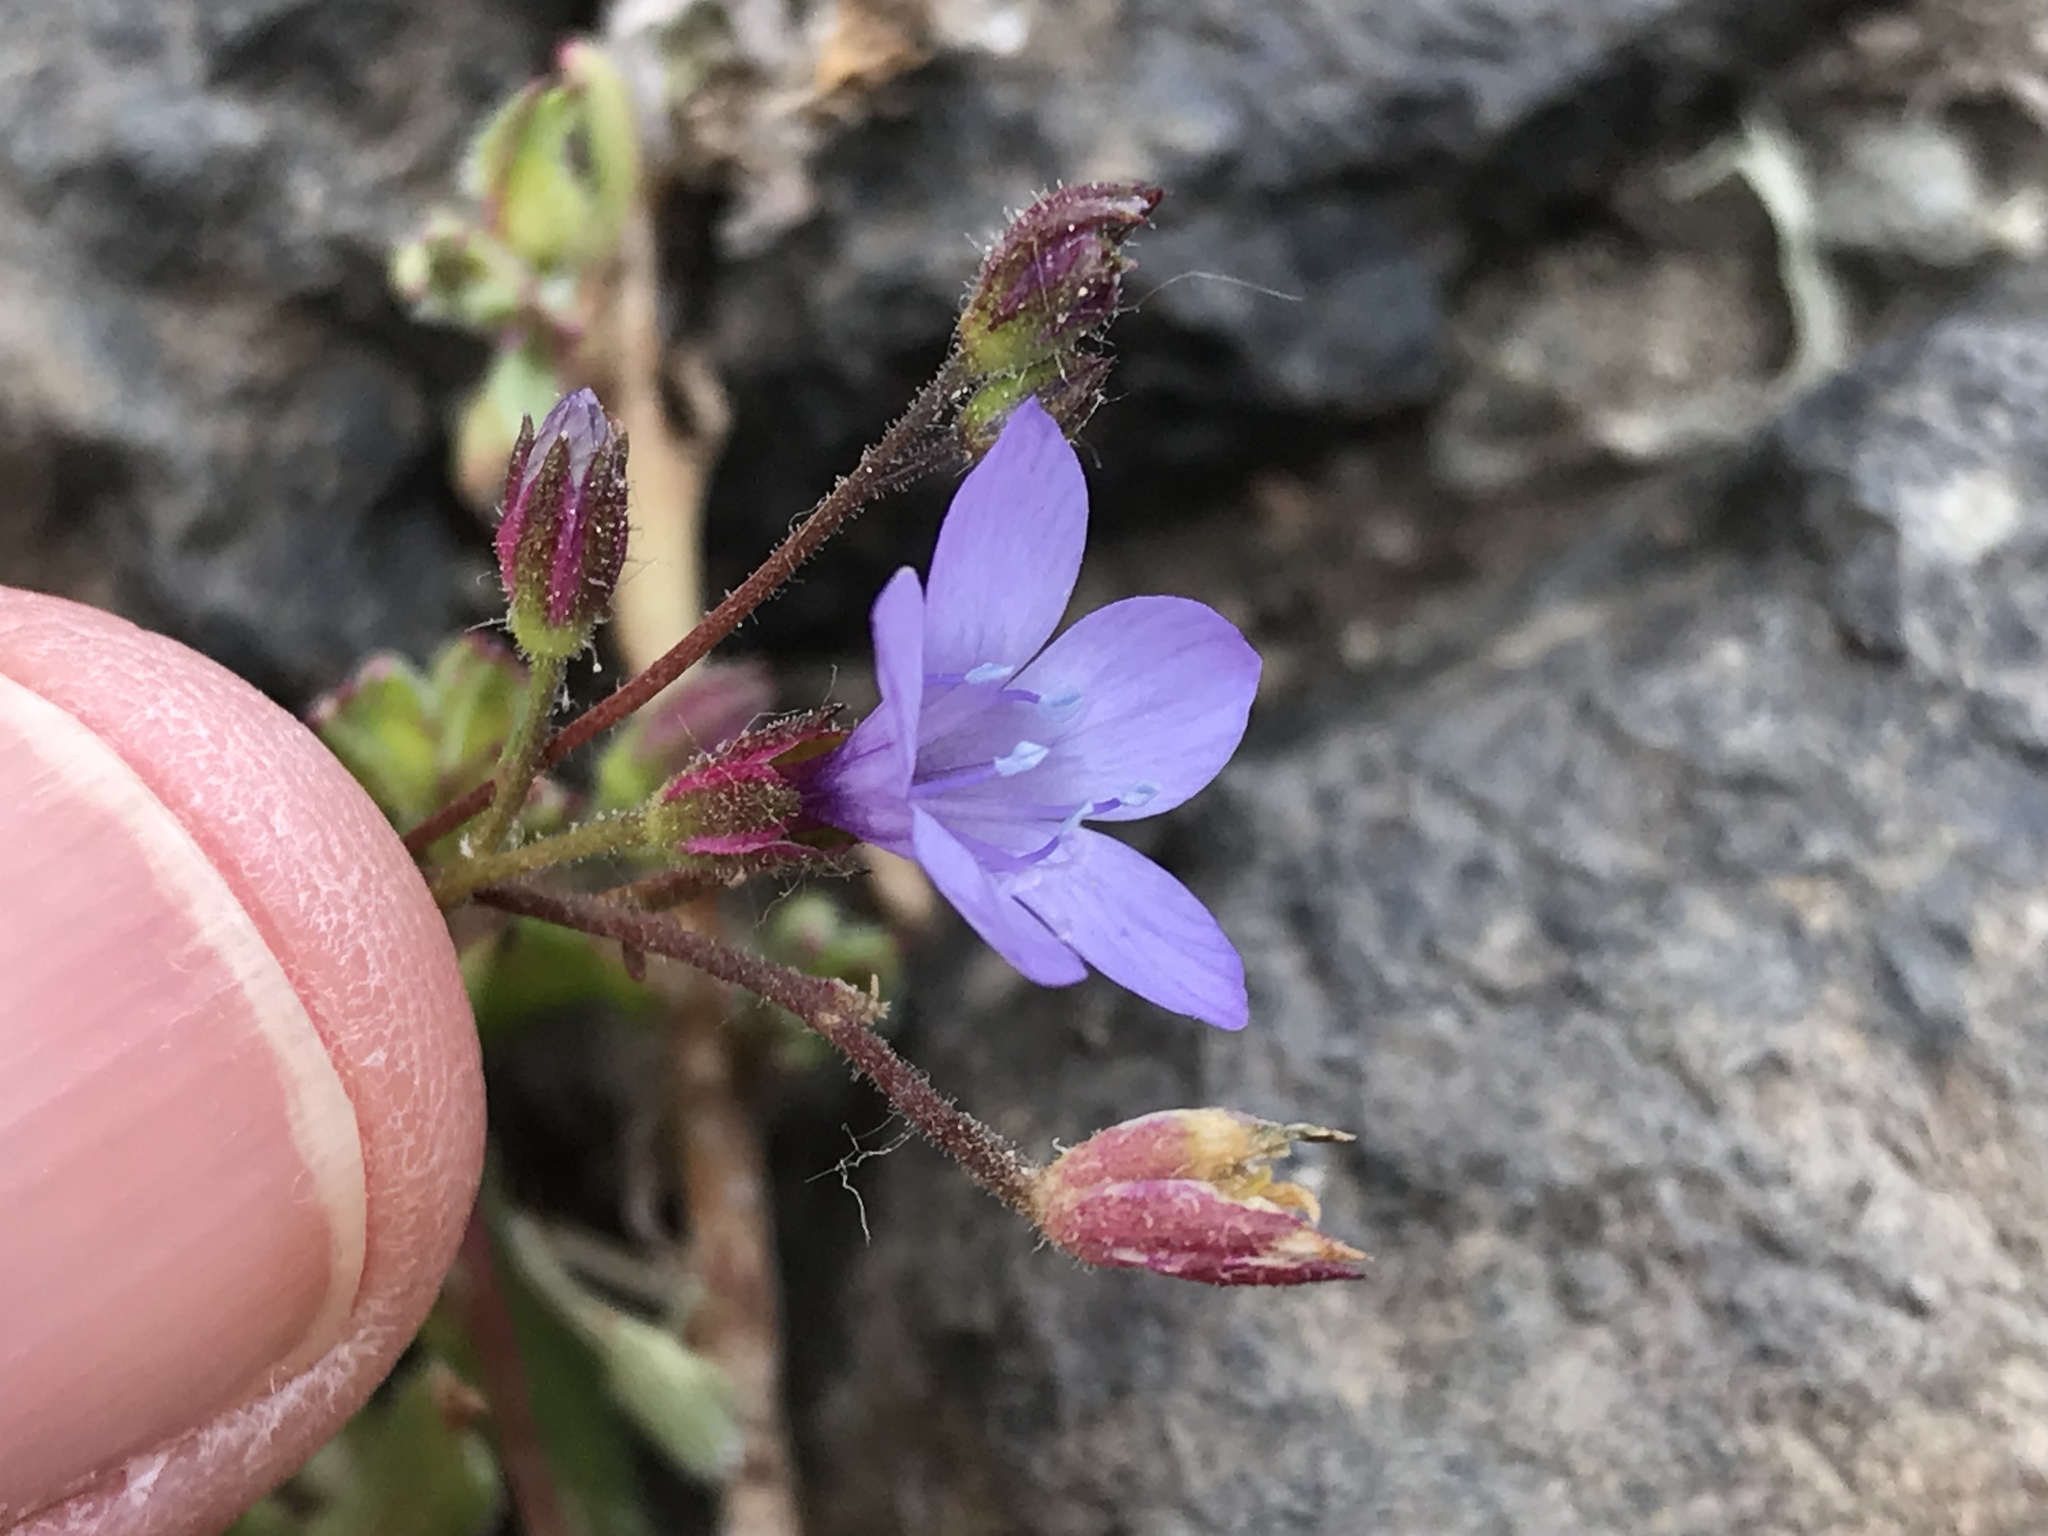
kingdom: Plantae
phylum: Tracheophyta
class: Magnoliopsida
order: Ericales
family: Polemoniaceae
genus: Gilia
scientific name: Gilia achilleifolia
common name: California gily-flower
